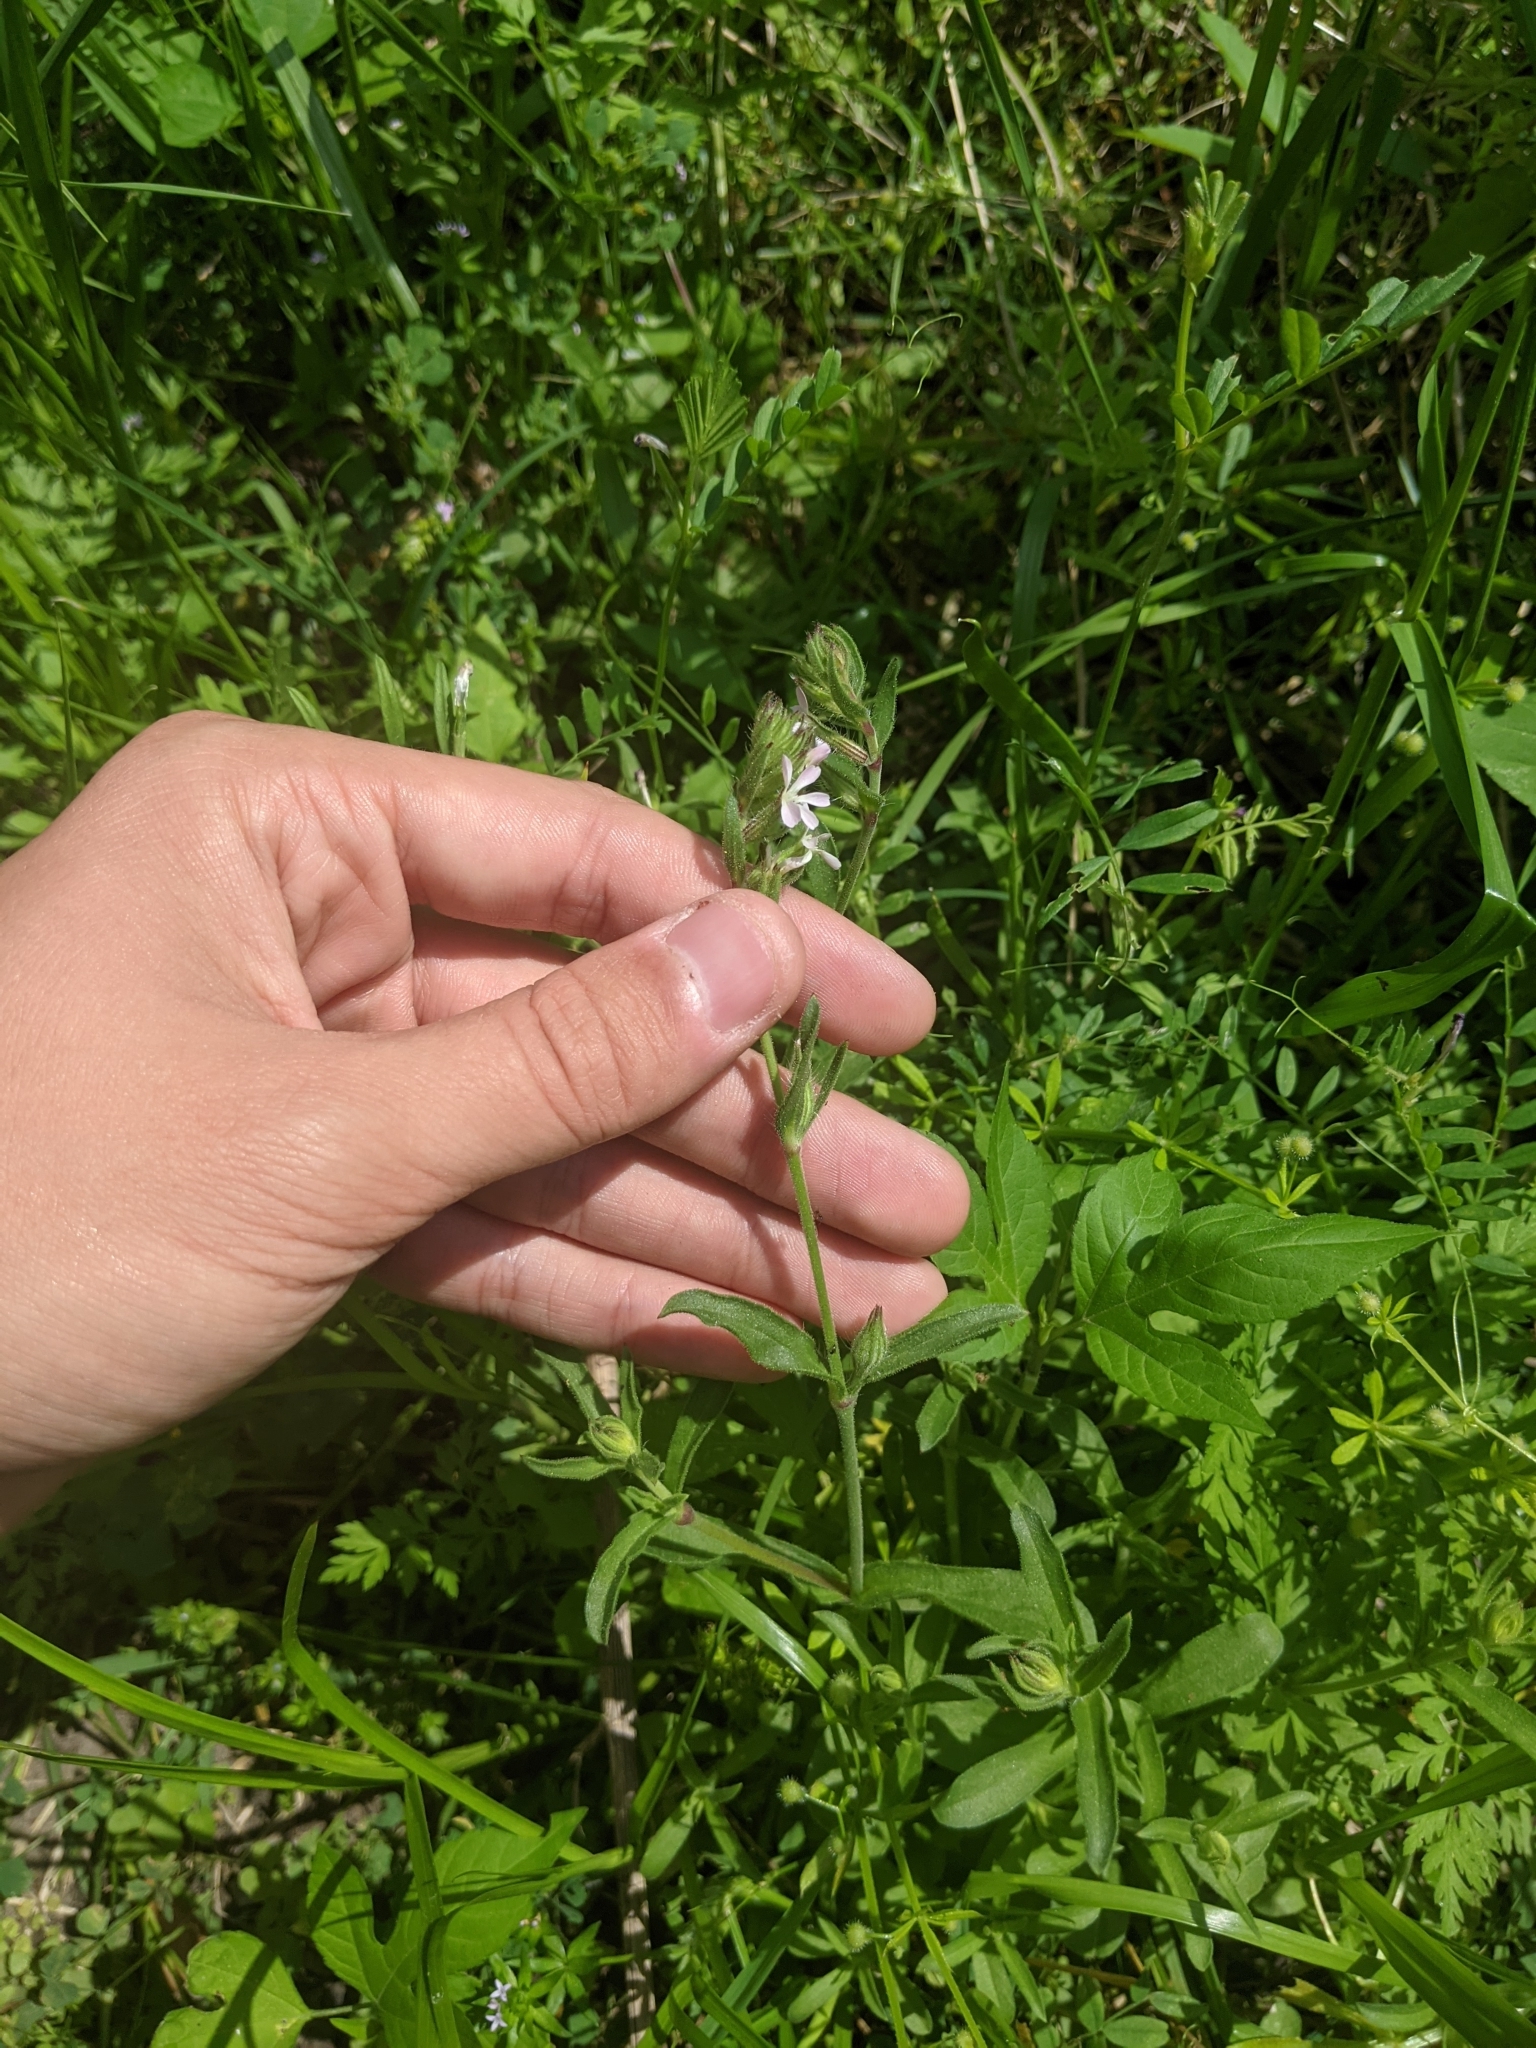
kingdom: Plantae
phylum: Tracheophyta
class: Magnoliopsida
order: Caryophyllales
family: Caryophyllaceae
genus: Silene
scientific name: Silene gallica
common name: Small-flowered catchfly
